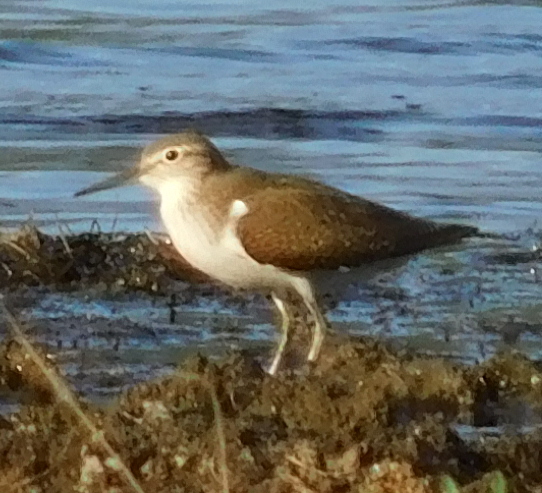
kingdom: Animalia
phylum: Chordata
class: Aves
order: Charadriiformes
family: Scolopacidae
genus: Actitis
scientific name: Actitis hypoleucos
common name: Common sandpiper
